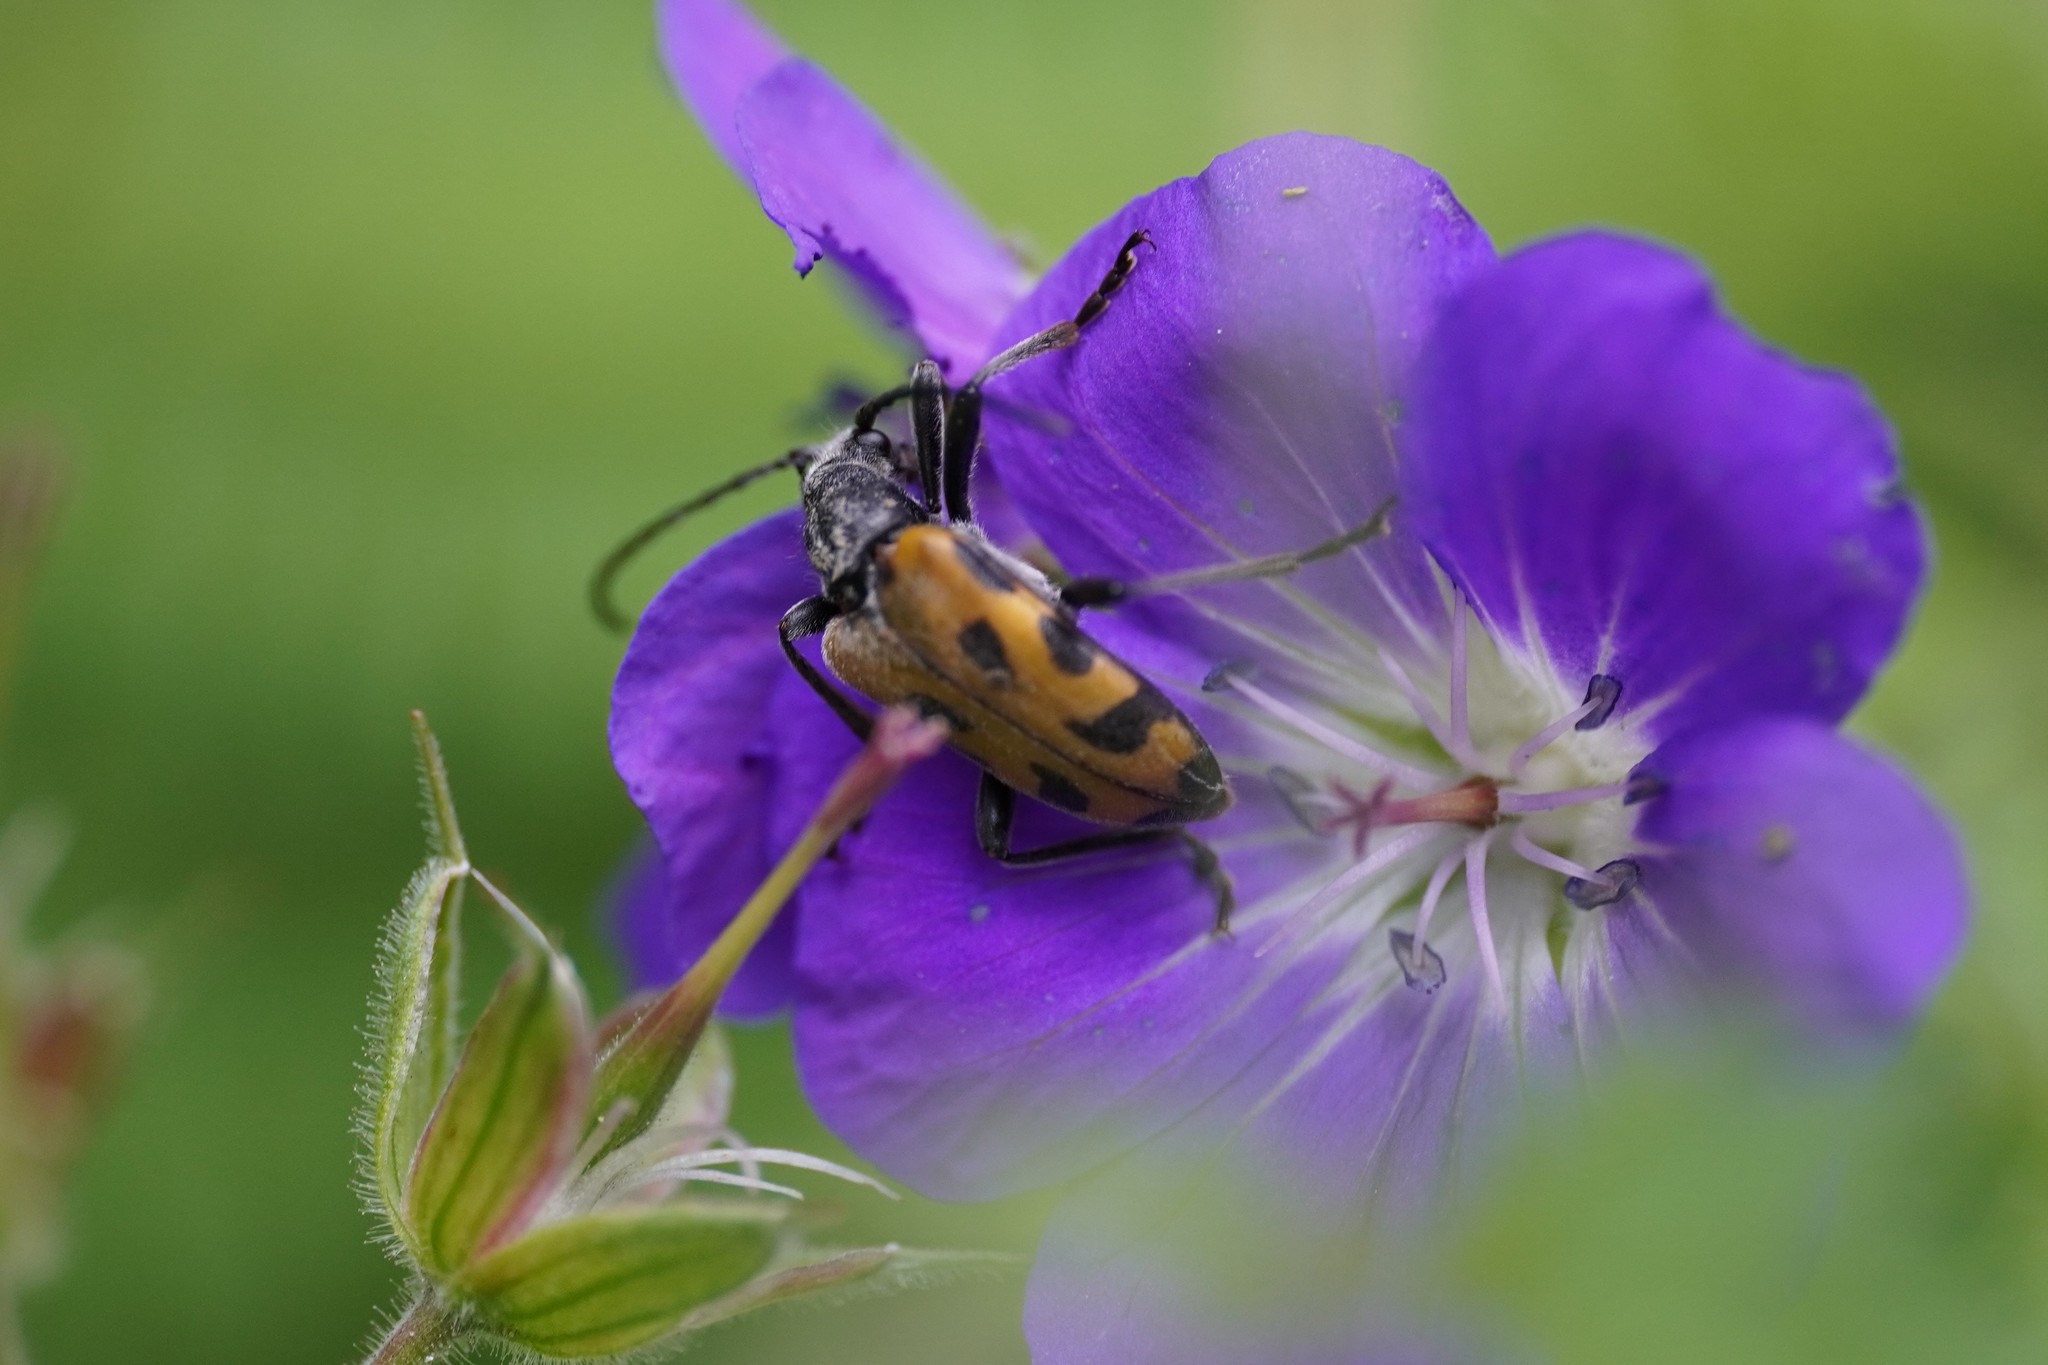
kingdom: Animalia
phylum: Arthropoda
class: Insecta
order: Coleoptera
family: Cerambycidae
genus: Brachyta
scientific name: Brachyta interrogationis
